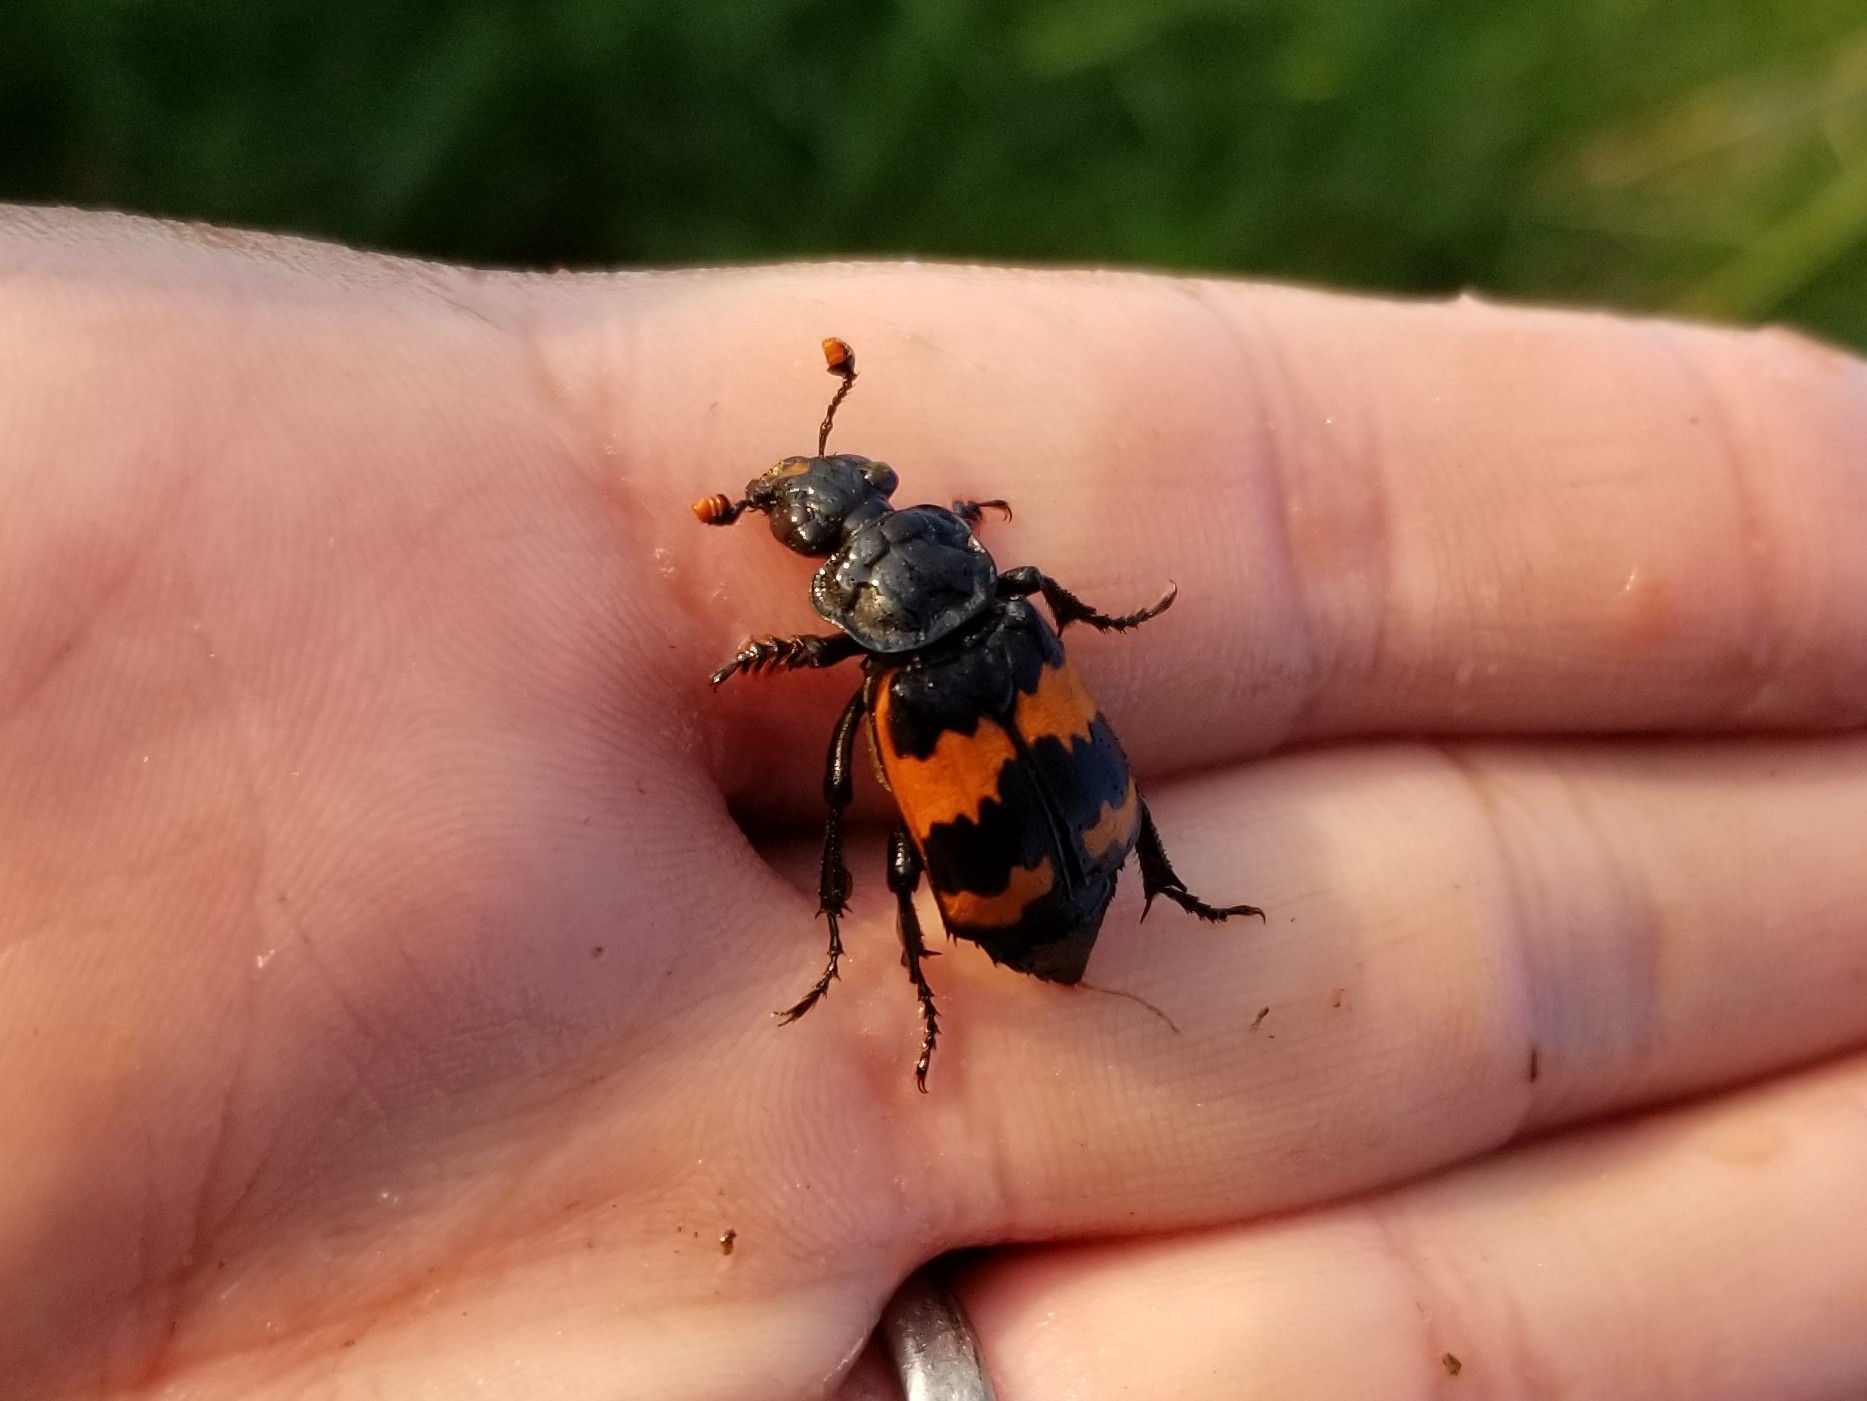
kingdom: Animalia
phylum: Arthropoda
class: Insecta
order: Coleoptera
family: Staphylinidae
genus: Nicrophorus
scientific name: Nicrophorus investigator
